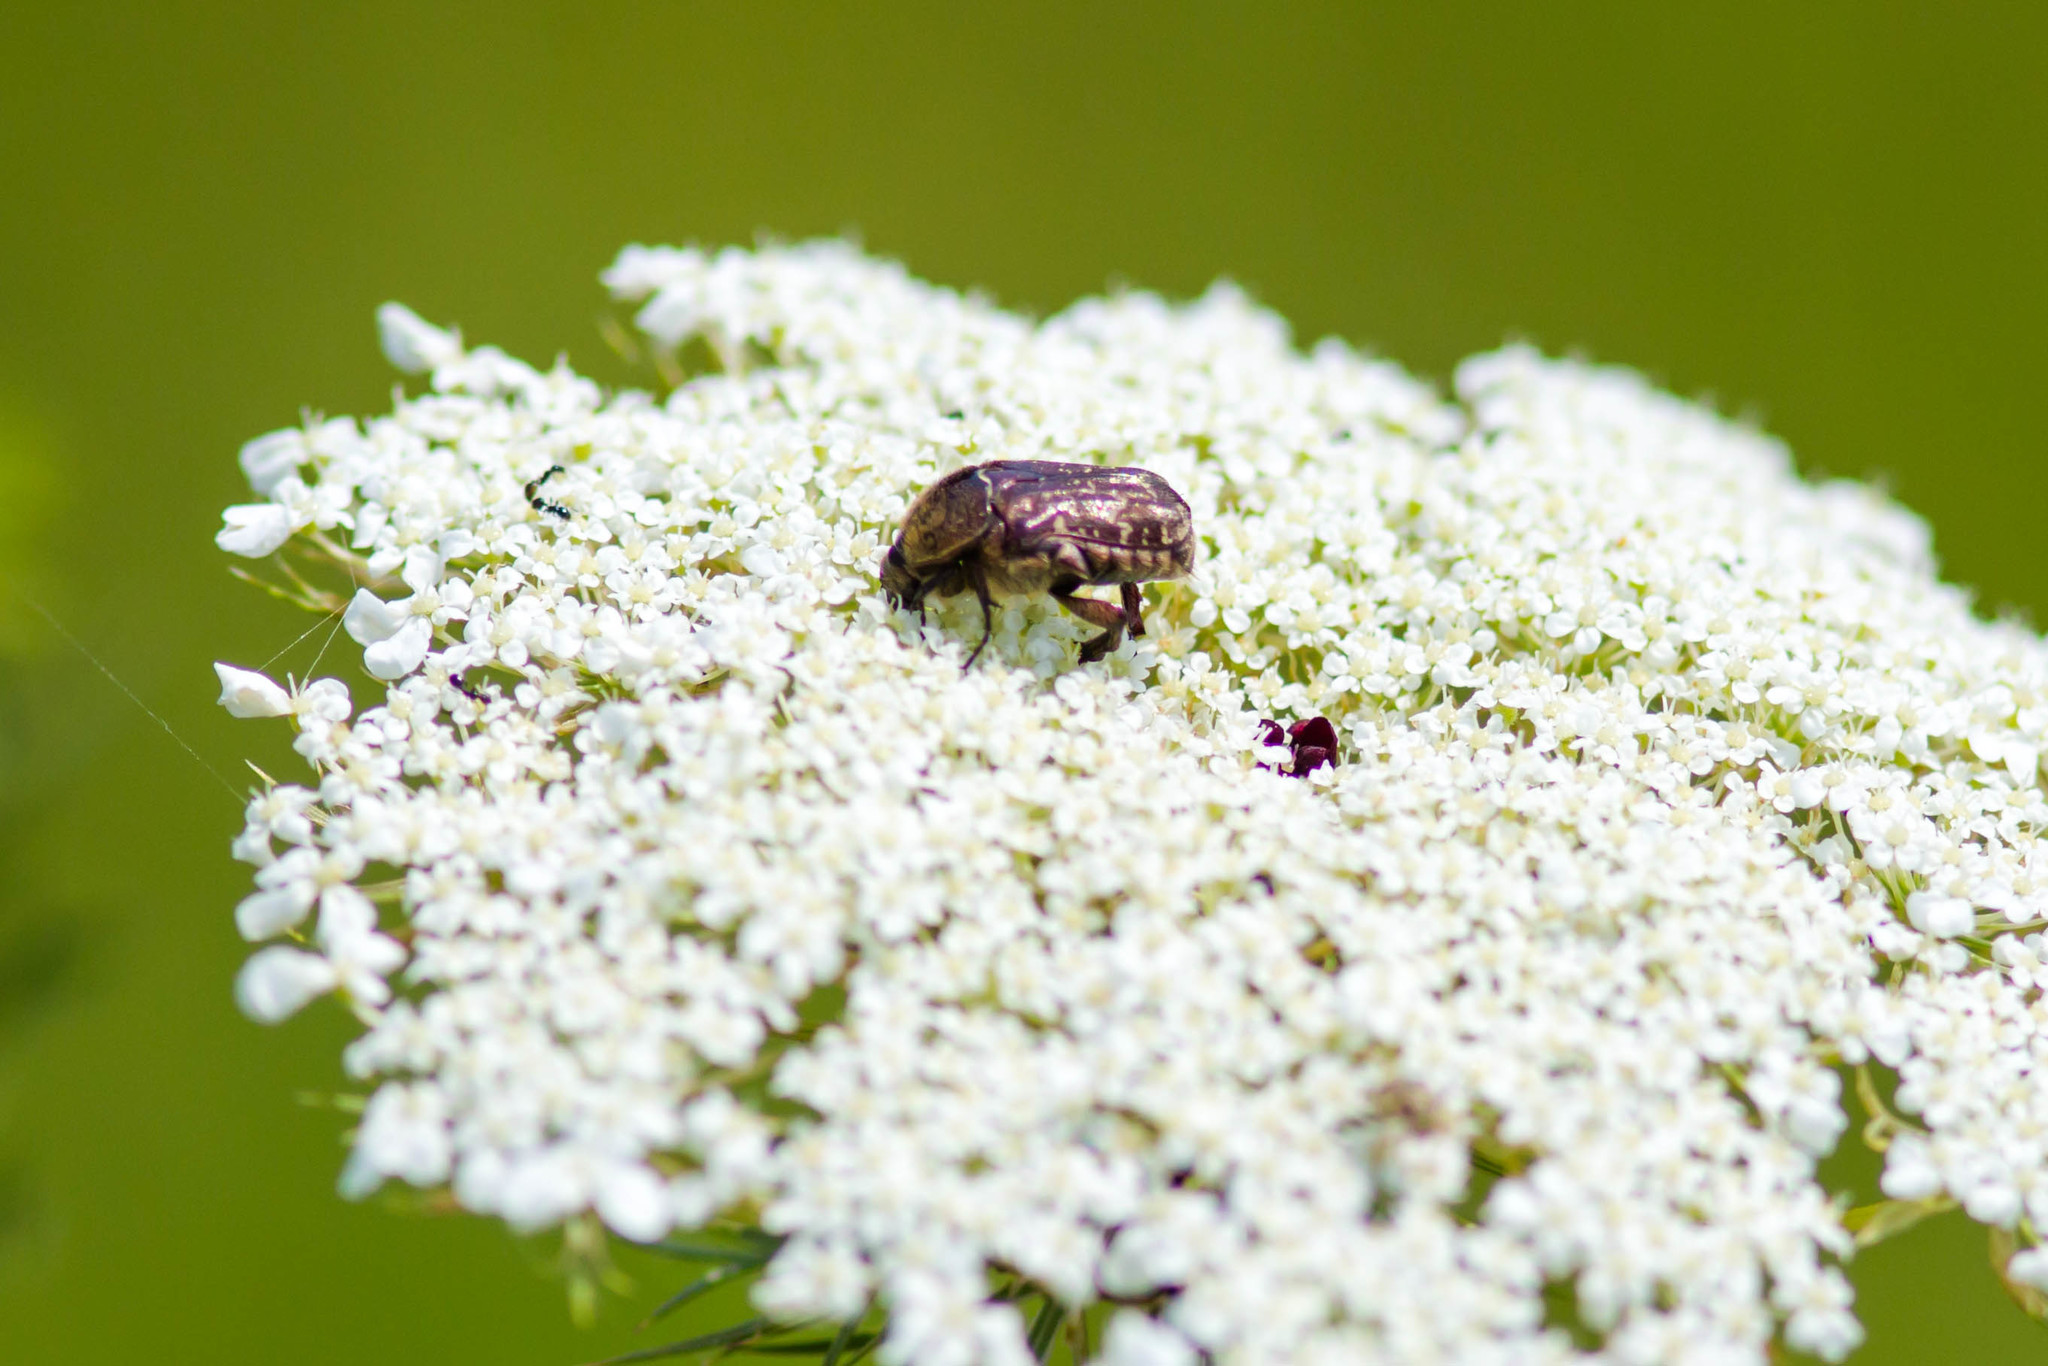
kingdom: Animalia
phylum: Arthropoda
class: Insecta
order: Coleoptera
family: Scarabaeidae
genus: Euphoria
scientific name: Euphoria sepulcralis
